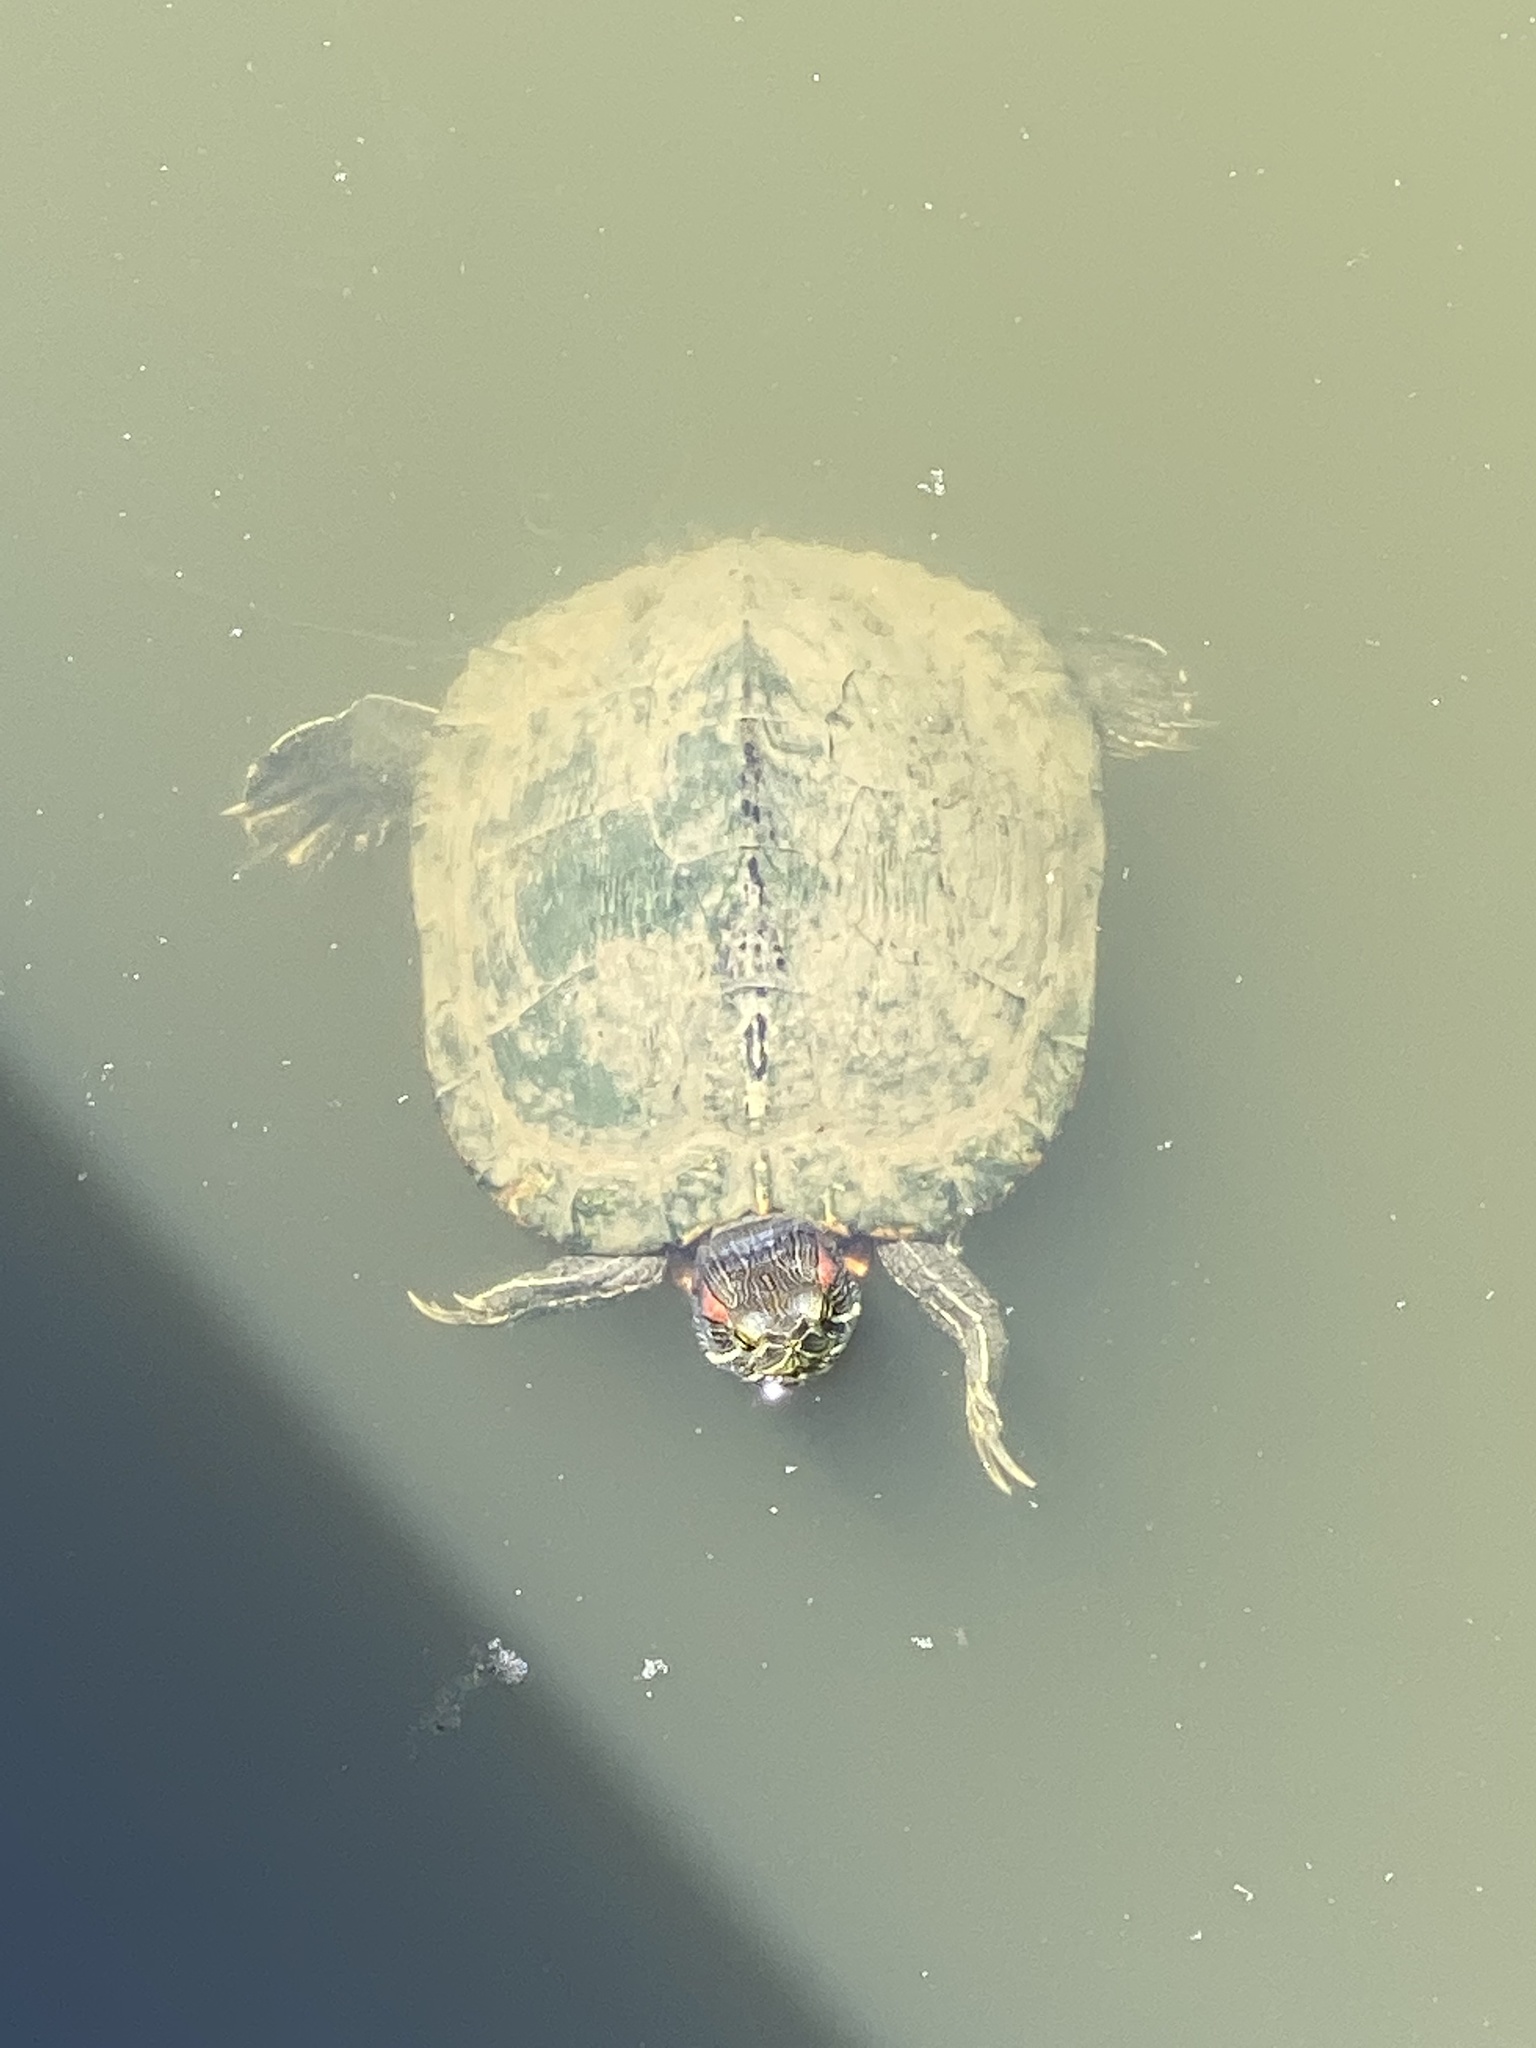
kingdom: Animalia
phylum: Chordata
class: Testudines
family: Emydidae
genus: Trachemys
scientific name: Trachemys scripta
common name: Slider
